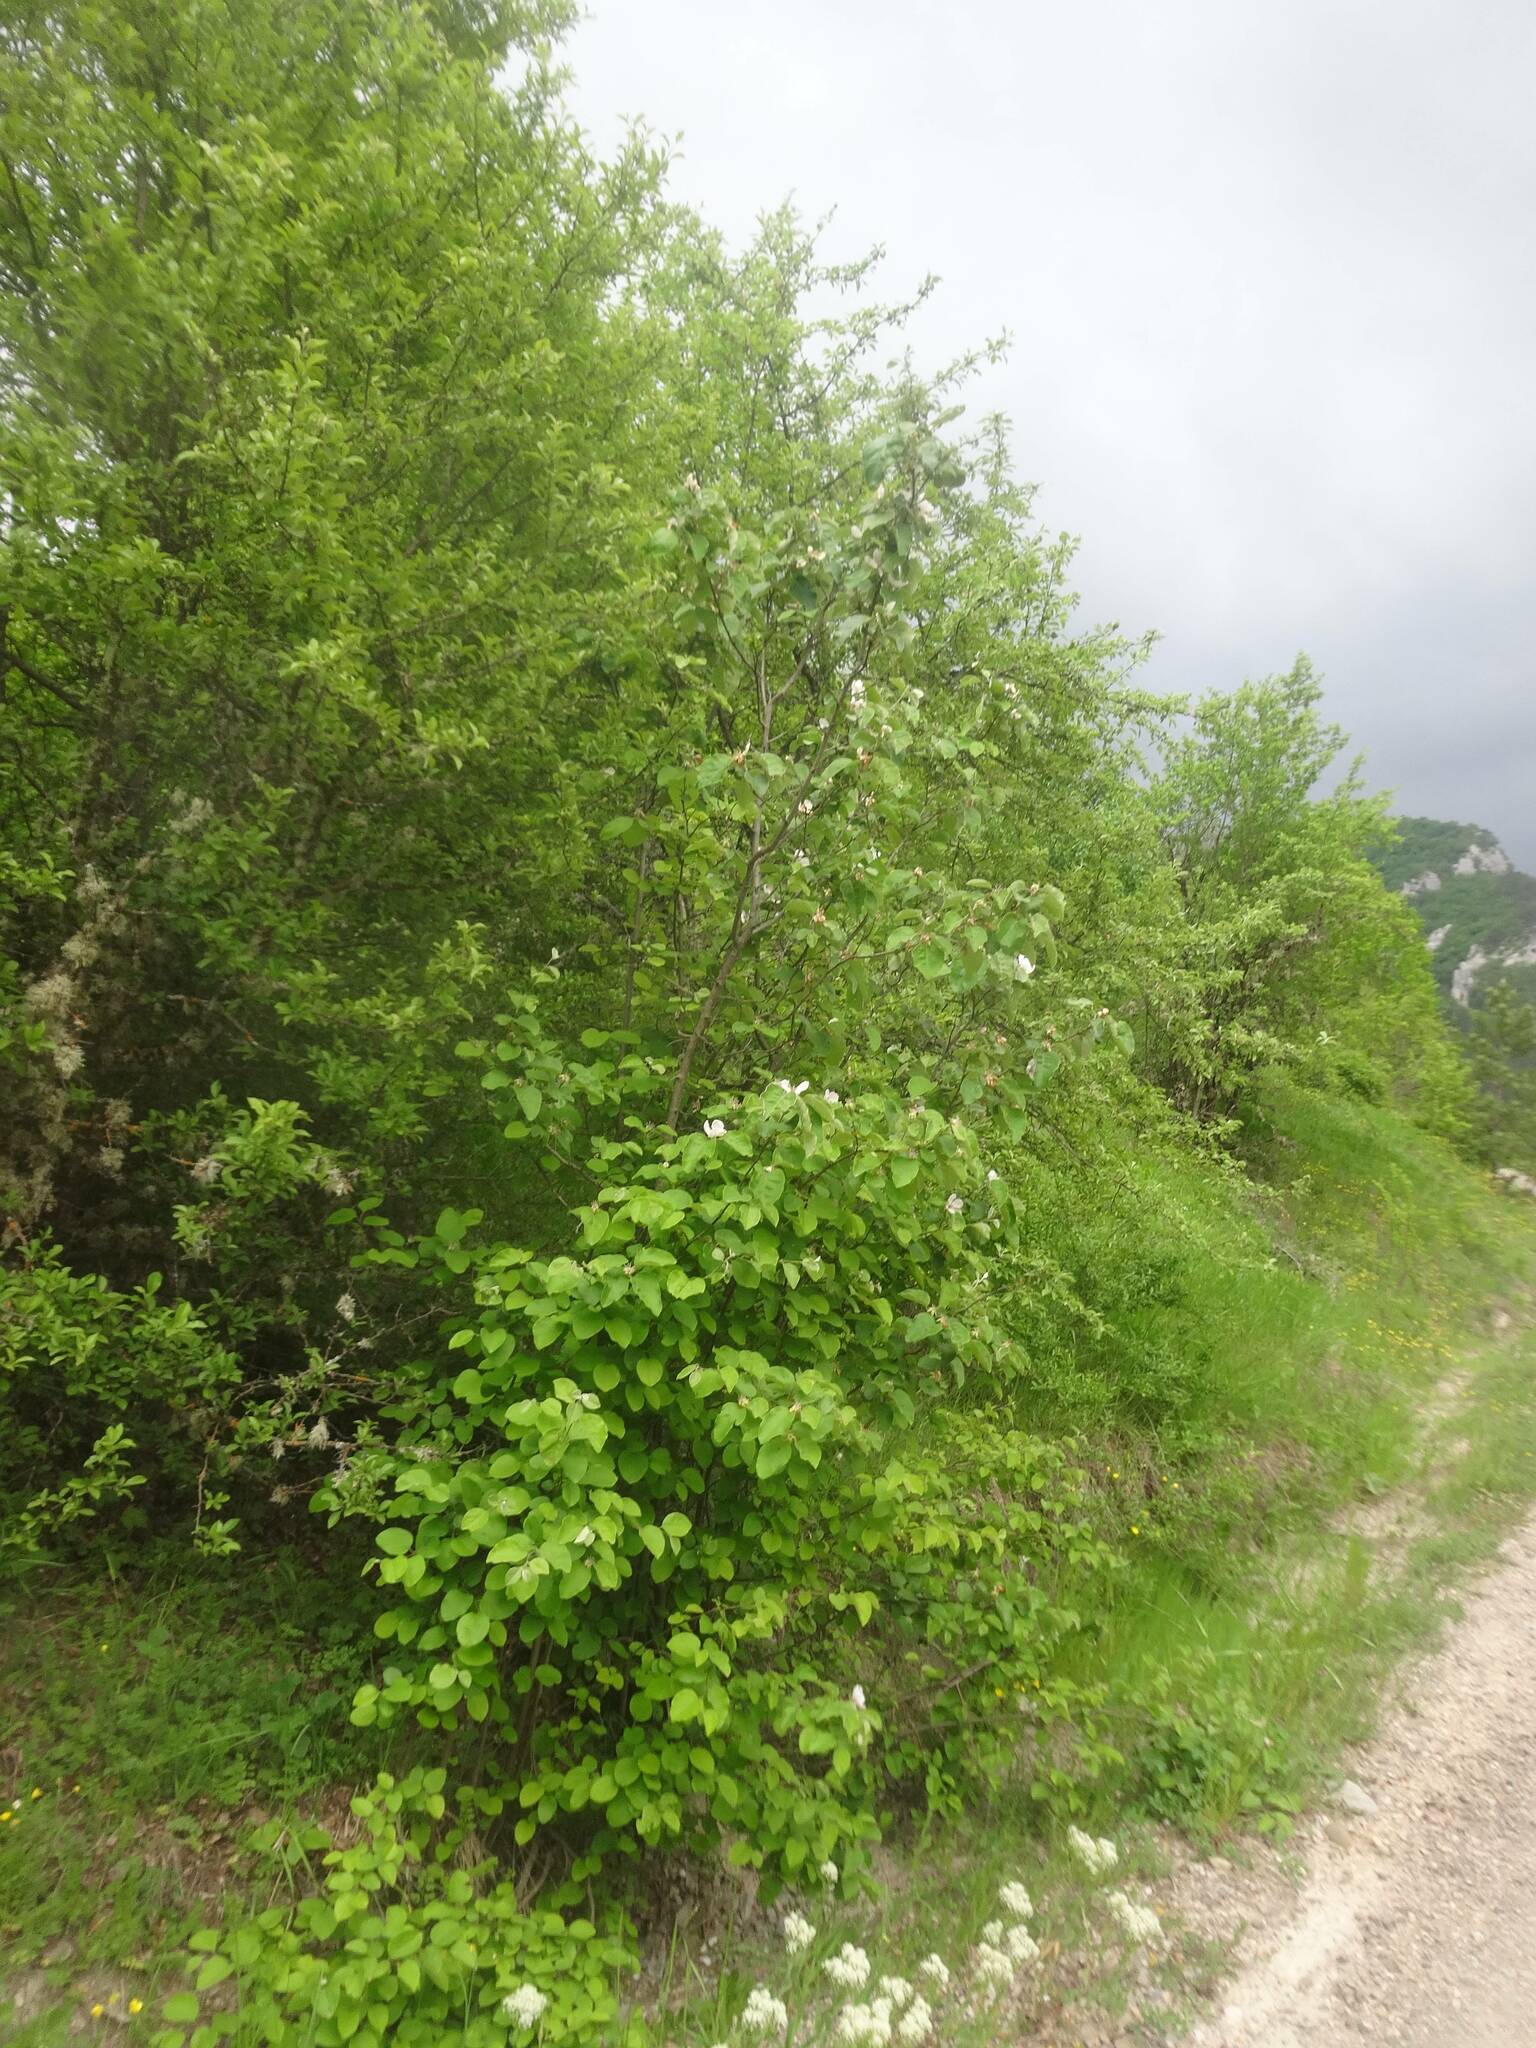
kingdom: Plantae
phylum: Tracheophyta
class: Magnoliopsida
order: Rosales
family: Rosaceae
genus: Cydonia
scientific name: Cydonia oblonga
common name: Quince
